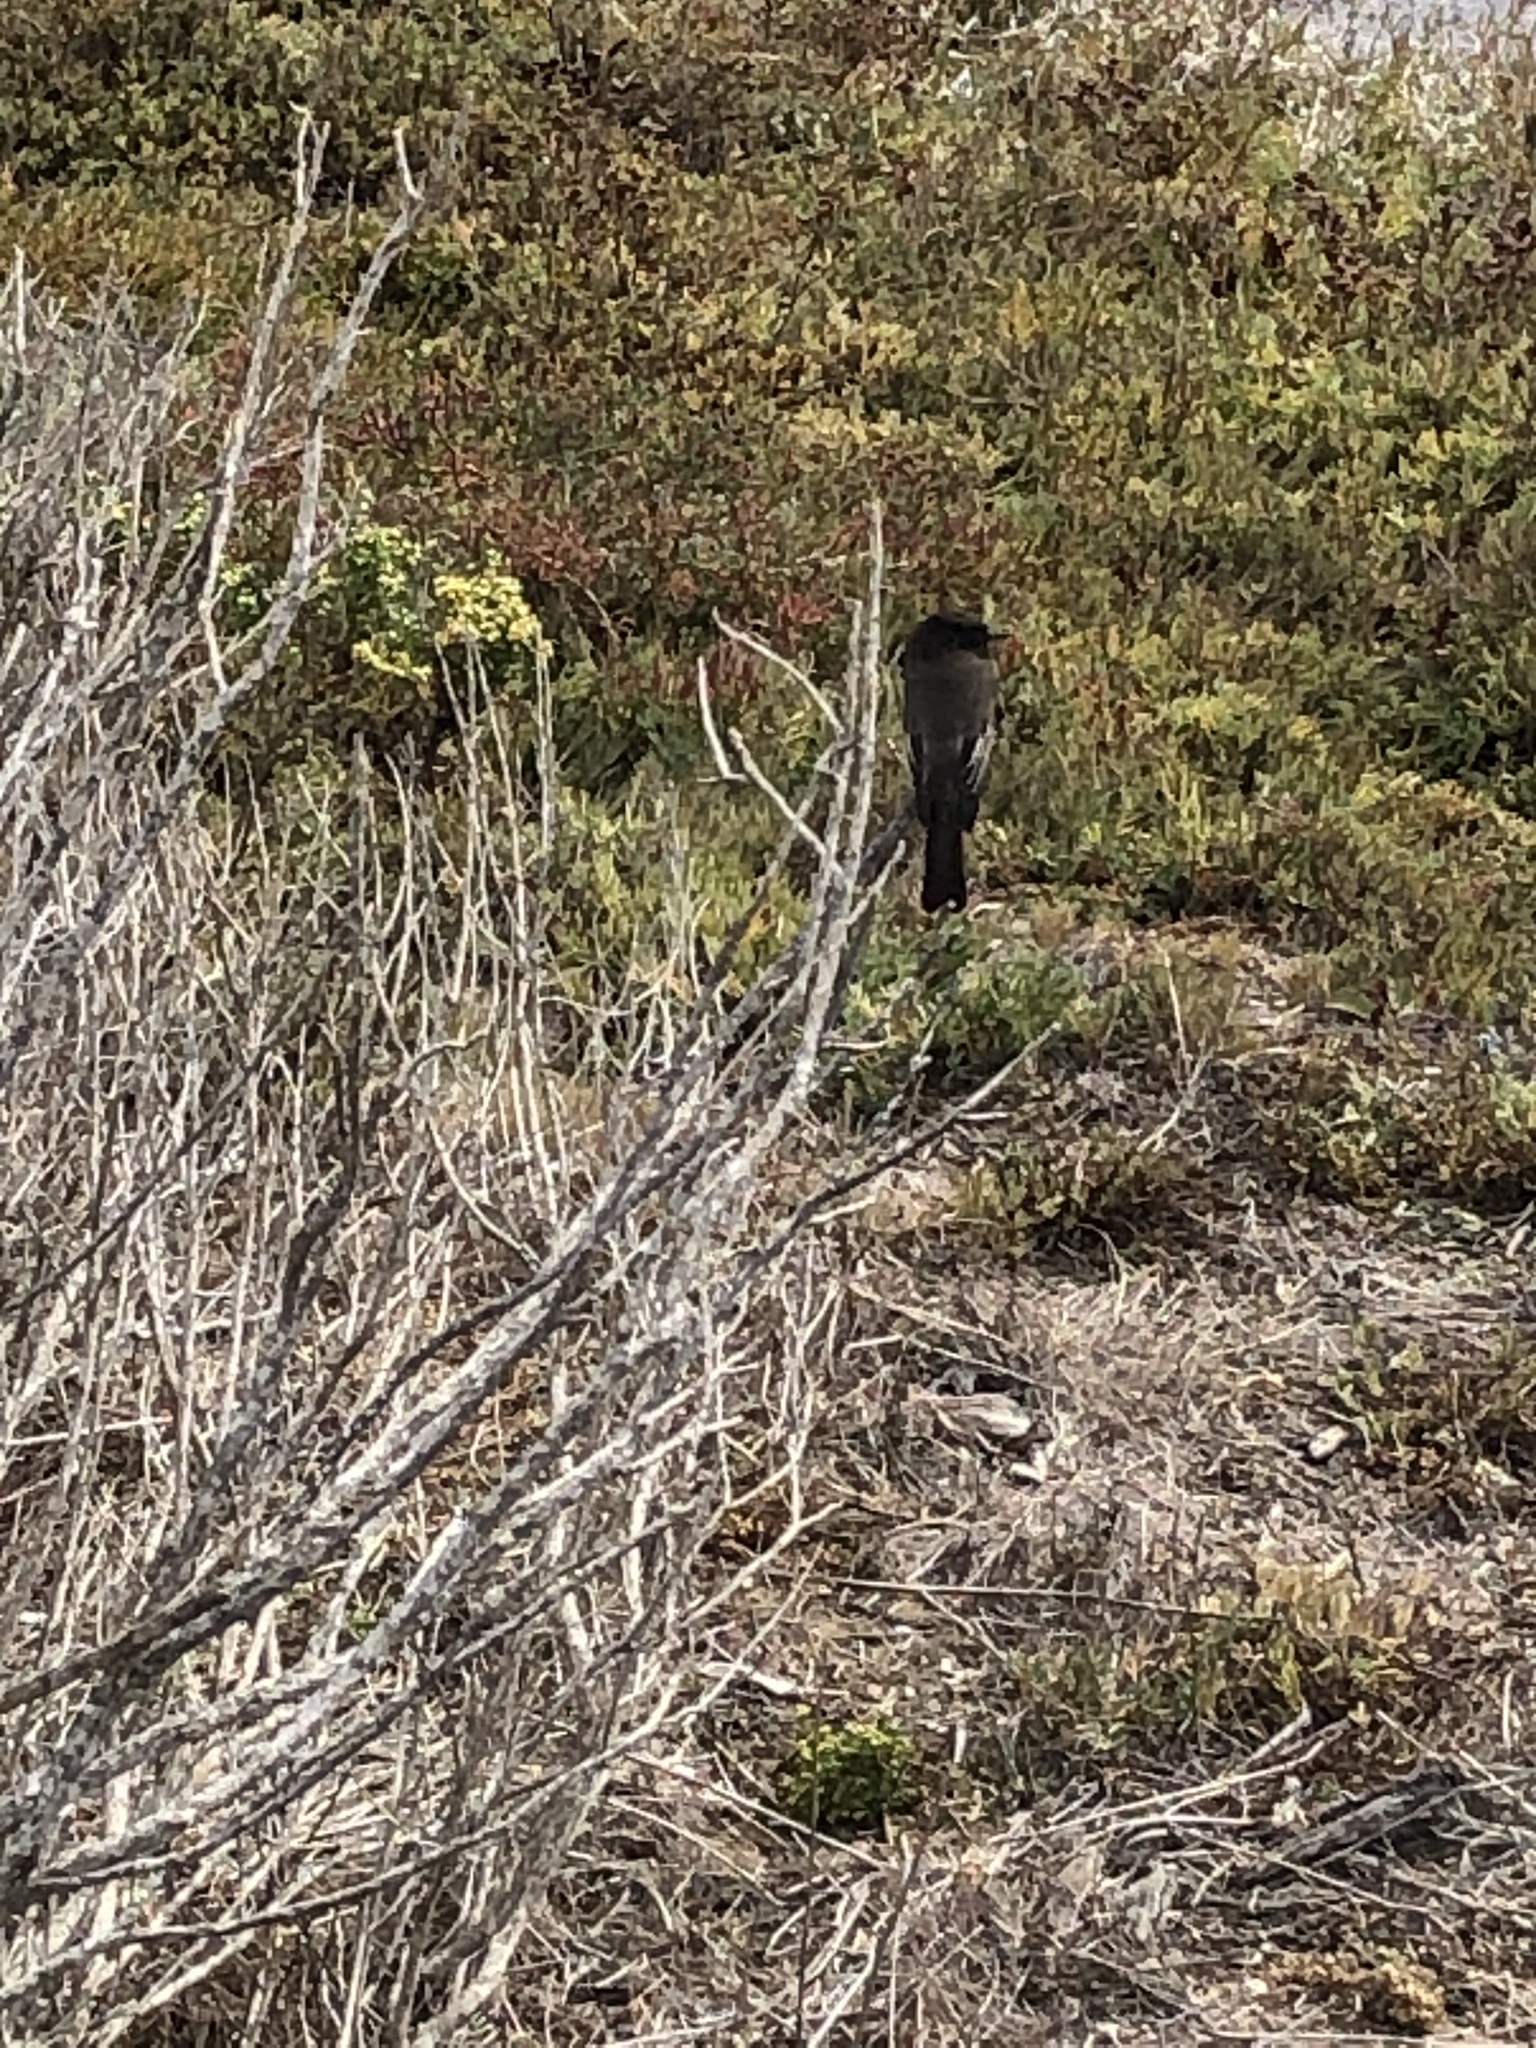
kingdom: Animalia
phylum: Chordata
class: Aves
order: Passeriformes
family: Tyrannidae
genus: Sayornis
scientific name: Sayornis nigricans
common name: Black phoebe
